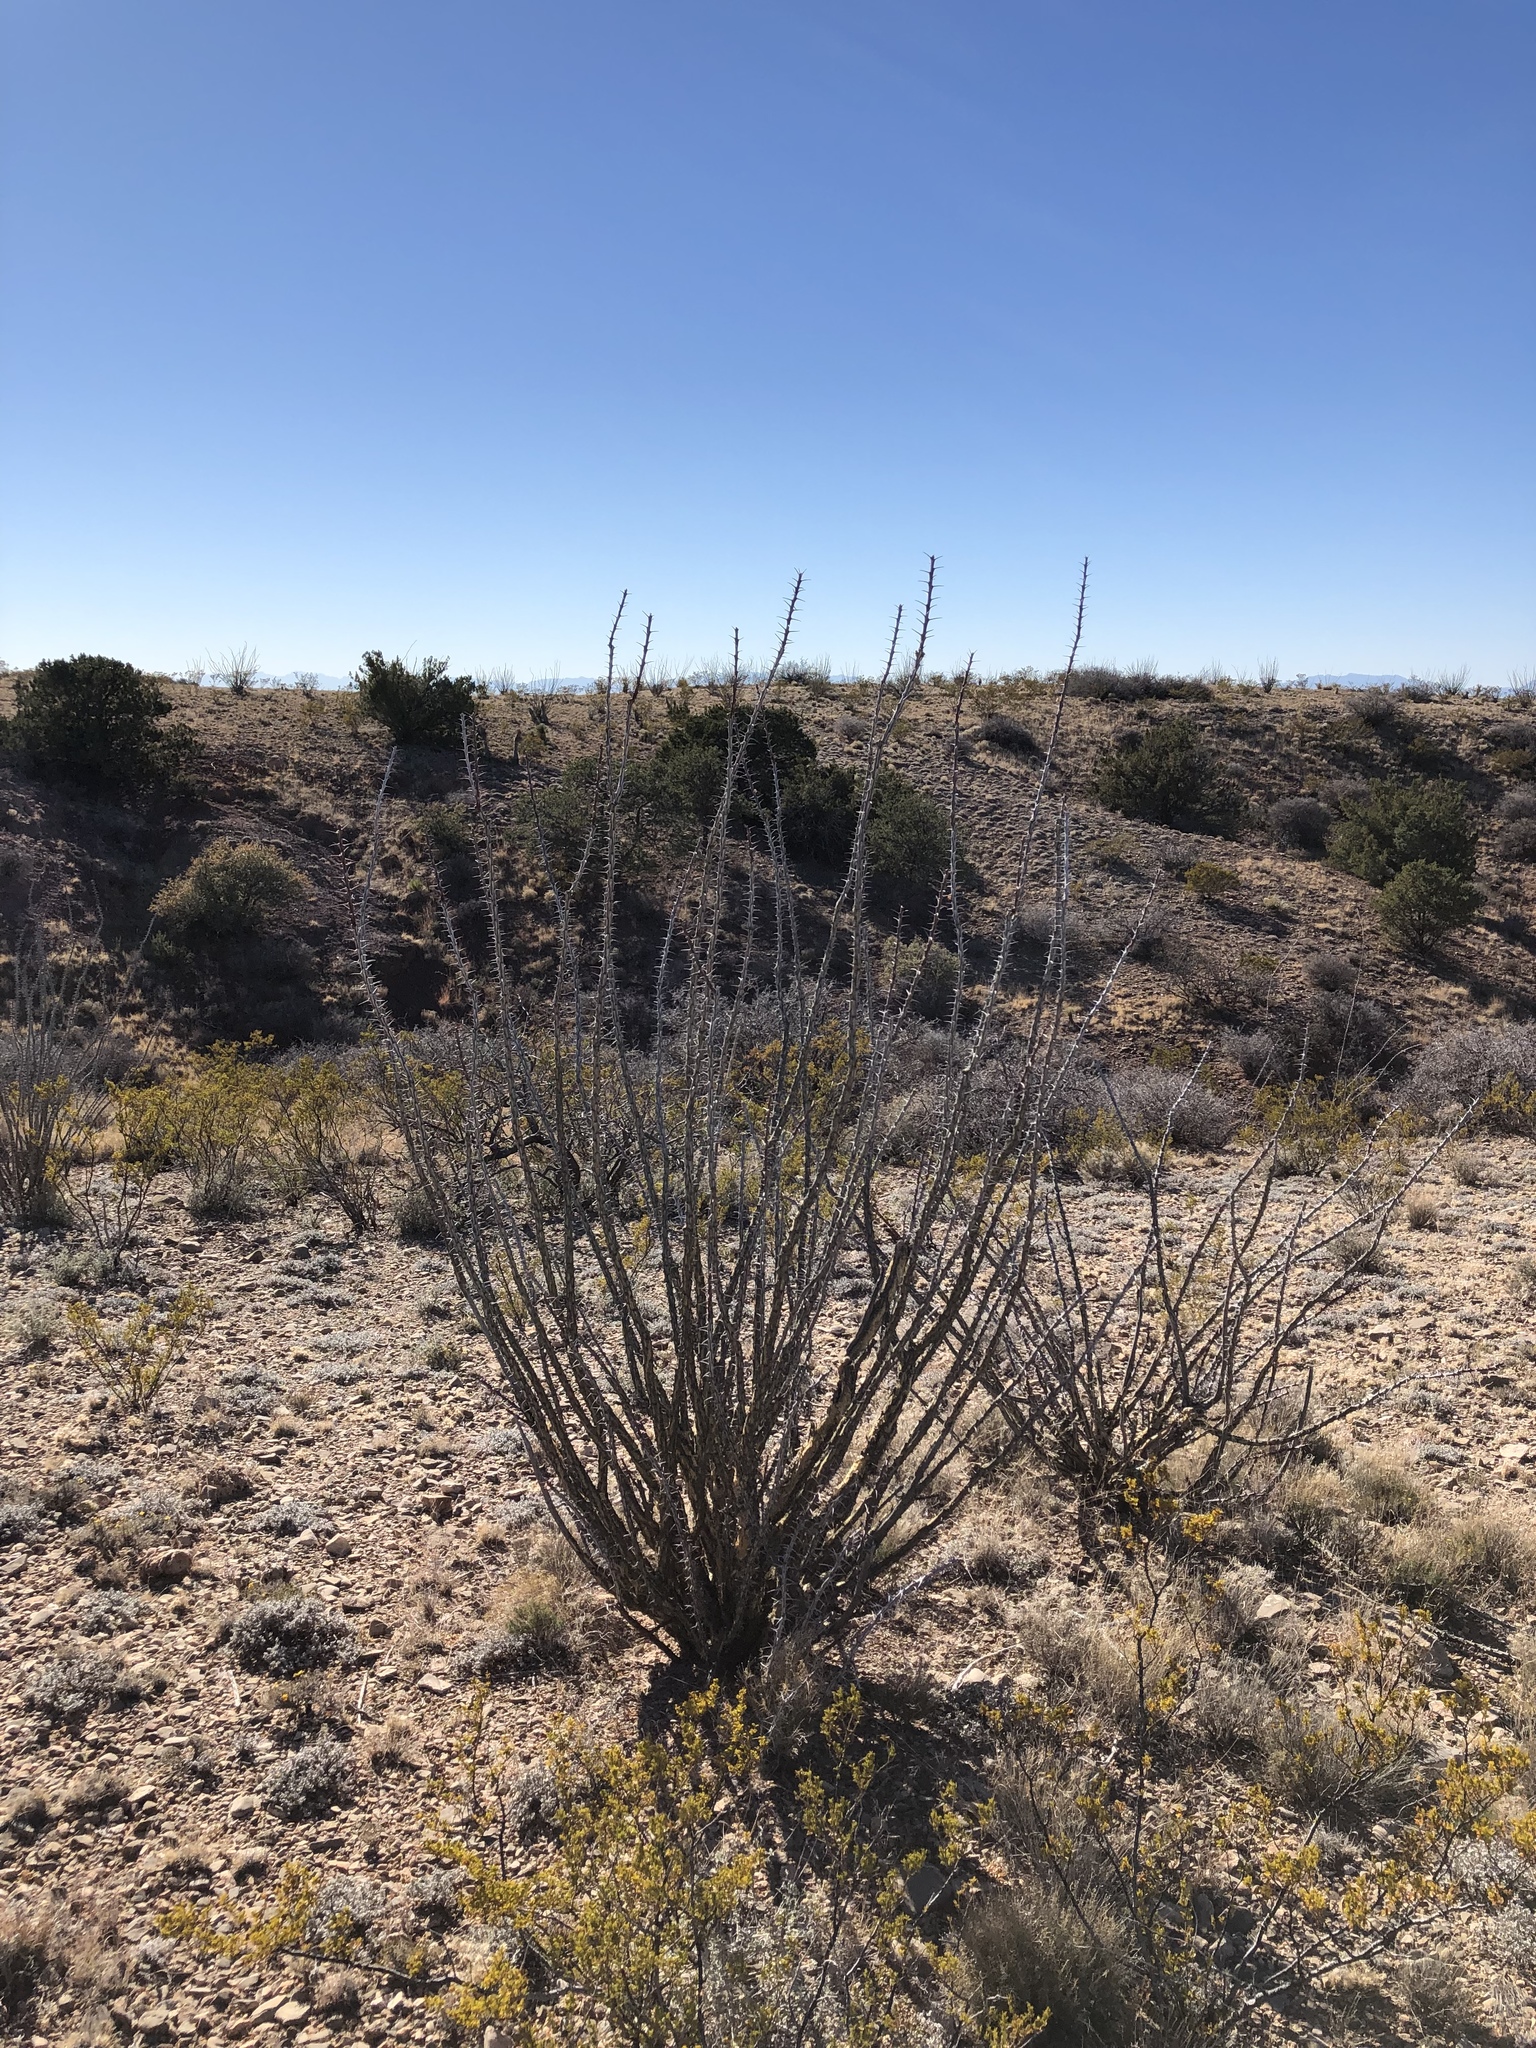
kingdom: Plantae
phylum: Tracheophyta
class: Magnoliopsida
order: Ericales
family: Fouquieriaceae
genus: Fouquieria
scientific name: Fouquieria splendens
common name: Vine-cactus
